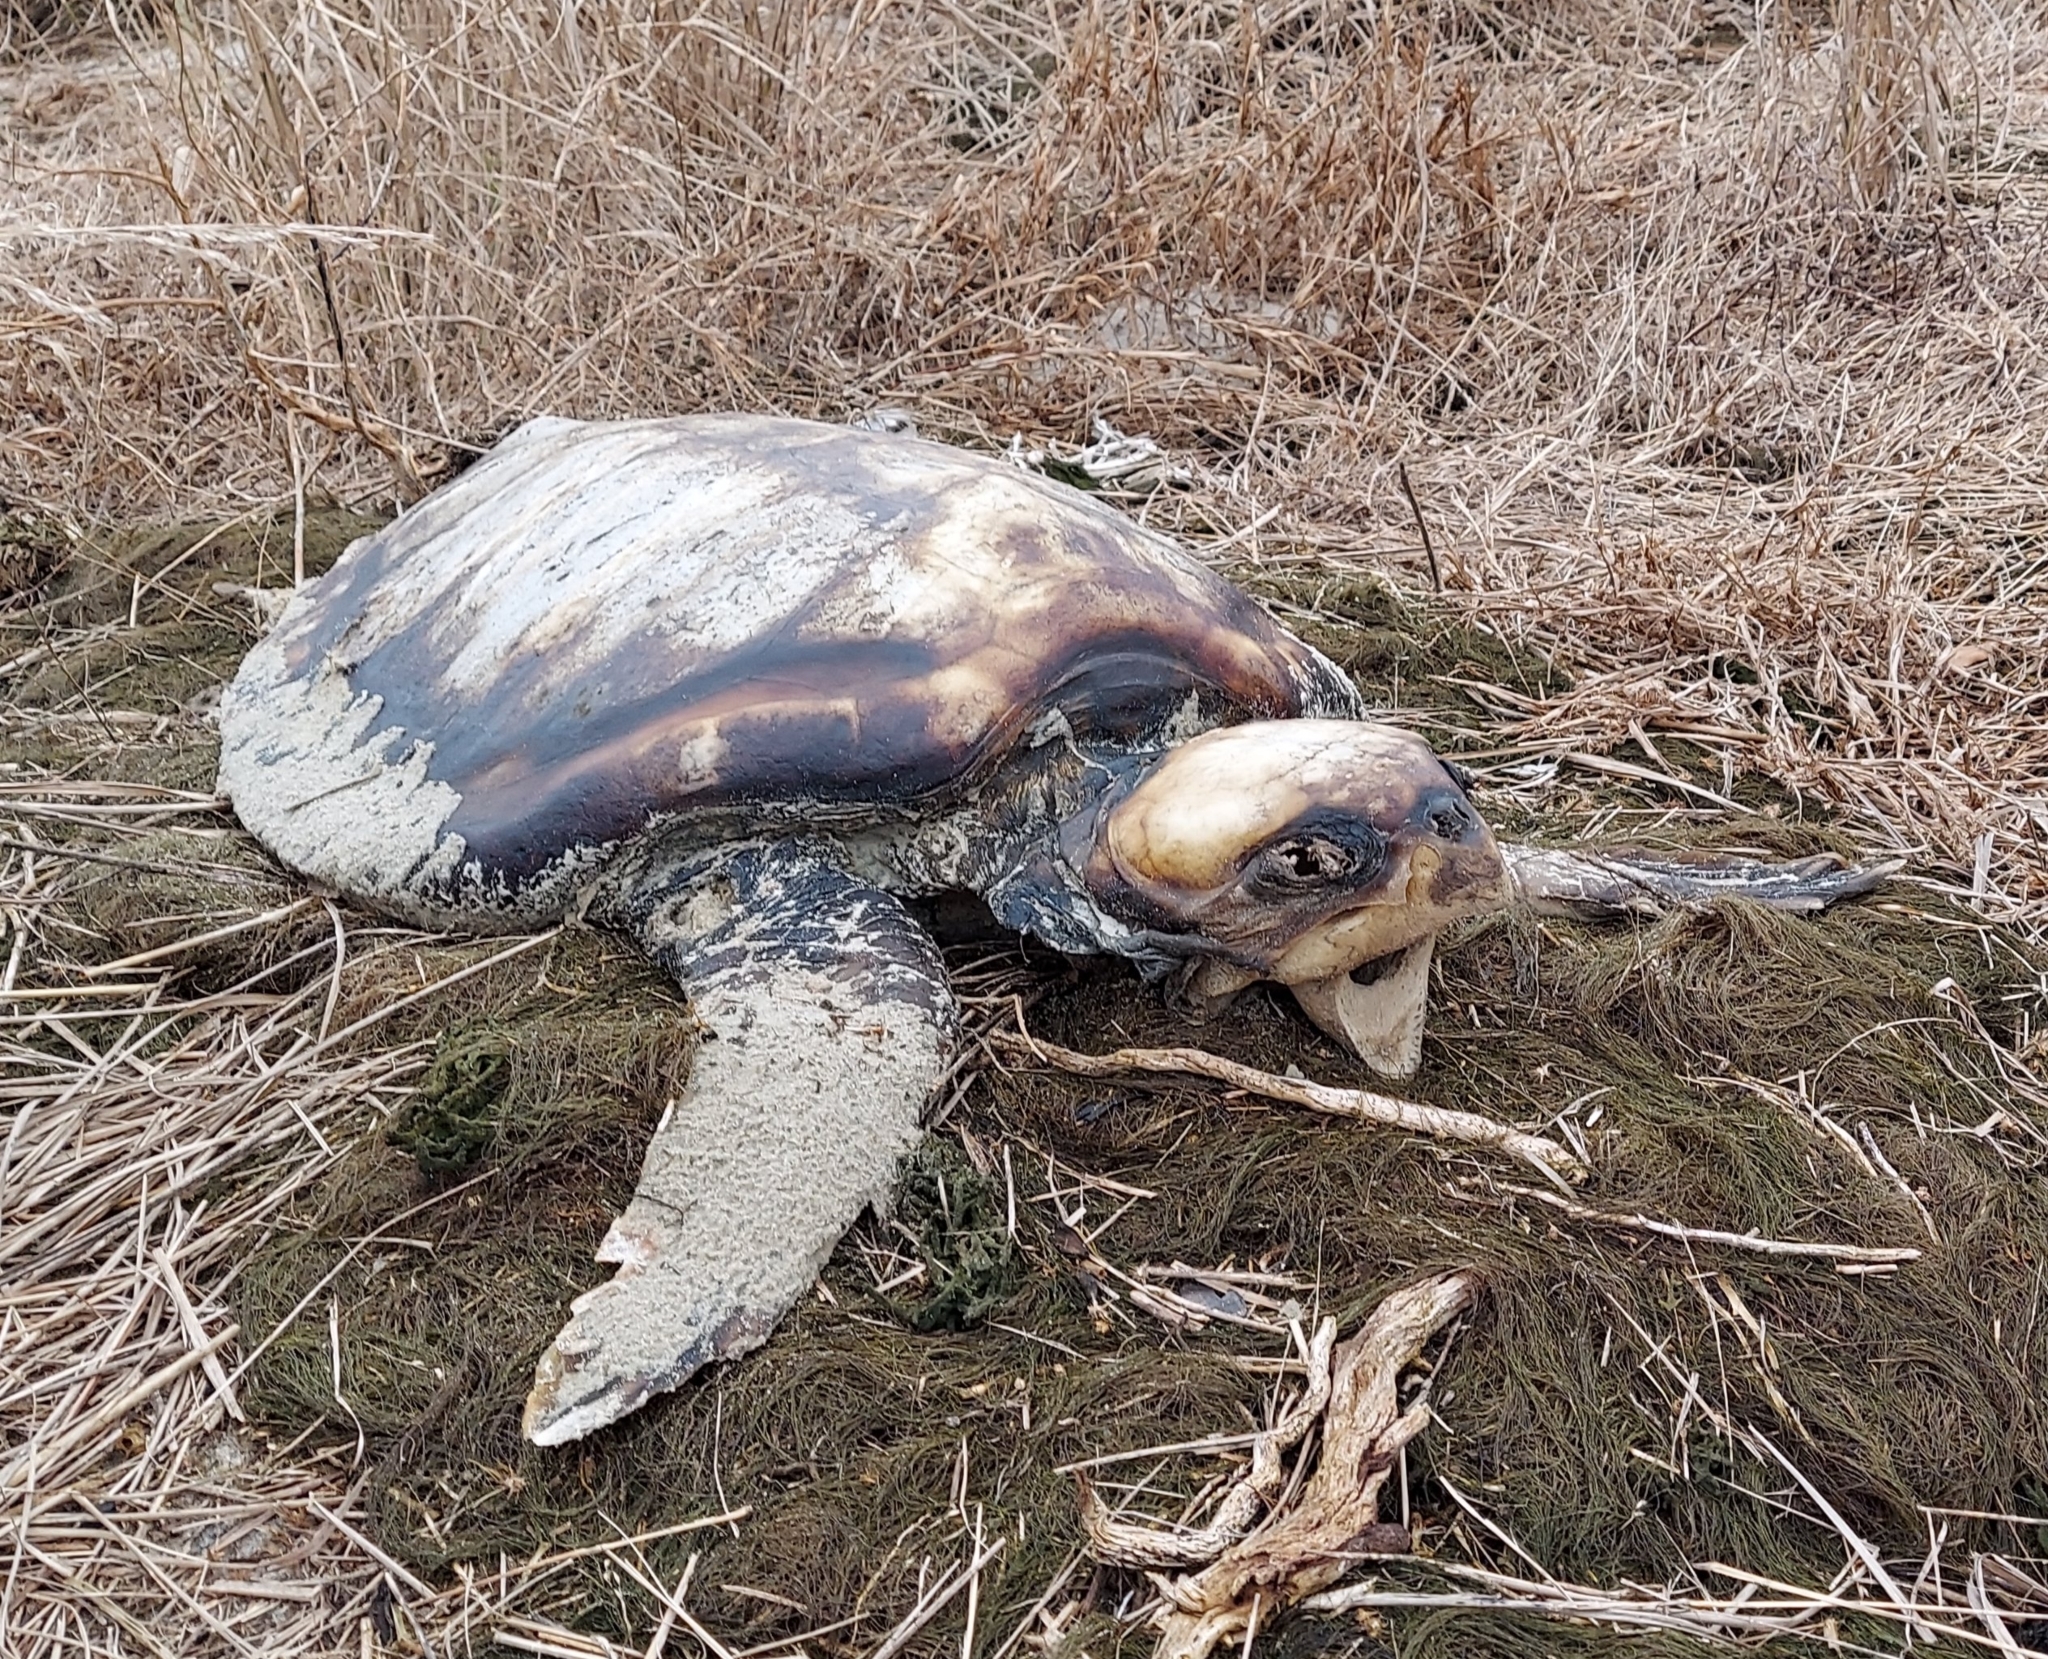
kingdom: Animalia
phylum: Chordata
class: Testudines
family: Cheloniidae
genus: Caretta
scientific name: Caretta caretta
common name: Loggerhead sea turtle
